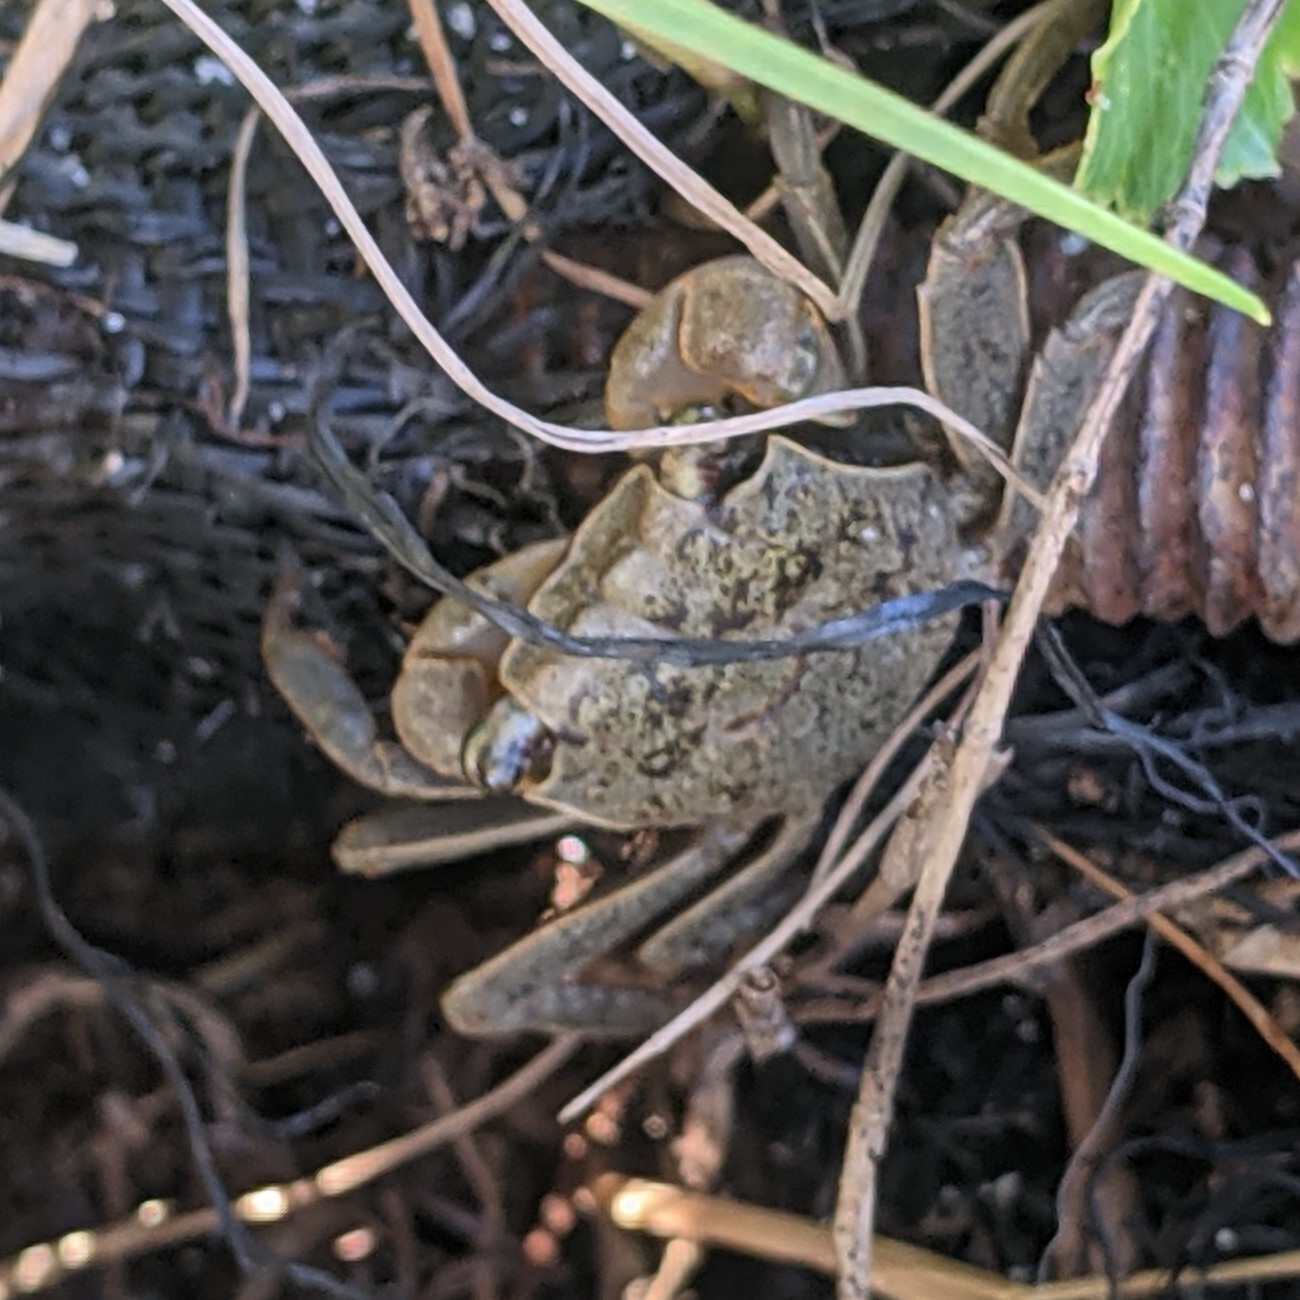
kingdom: Animalia
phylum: Arthropoda
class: Malacostraca
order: Decapoda
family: Sesarmidae
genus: Armases
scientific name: Armases cinereum
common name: Squareback marsh crab
